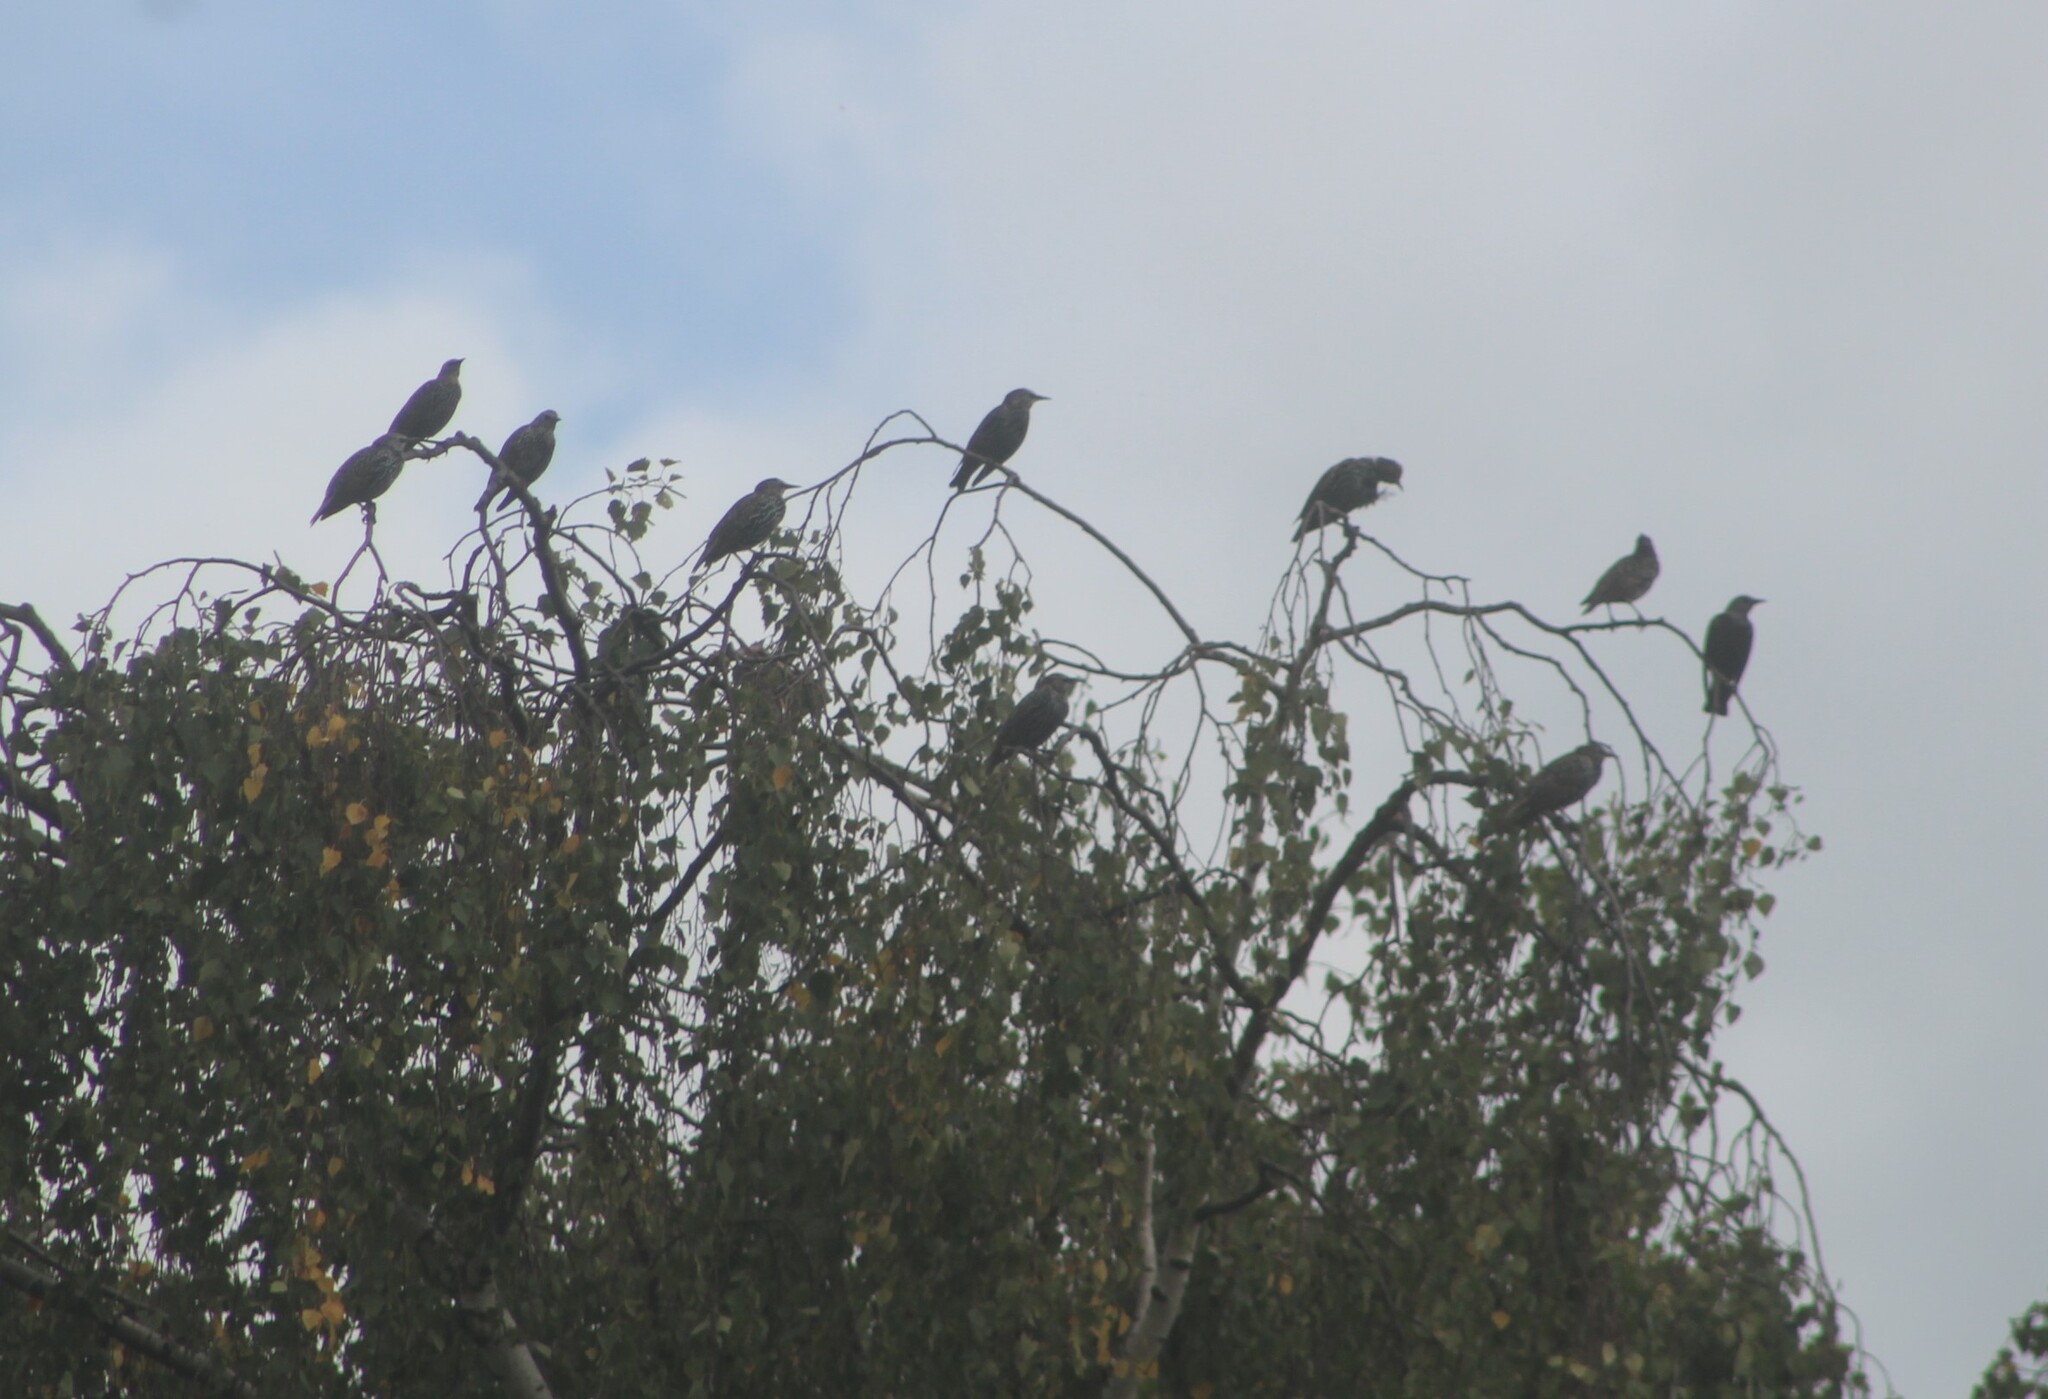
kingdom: Animalia
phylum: Chordata
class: Aves
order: Passeriformes
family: Sturnidae
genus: Sturnus
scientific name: Sturnus vulgaris
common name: Common starling
